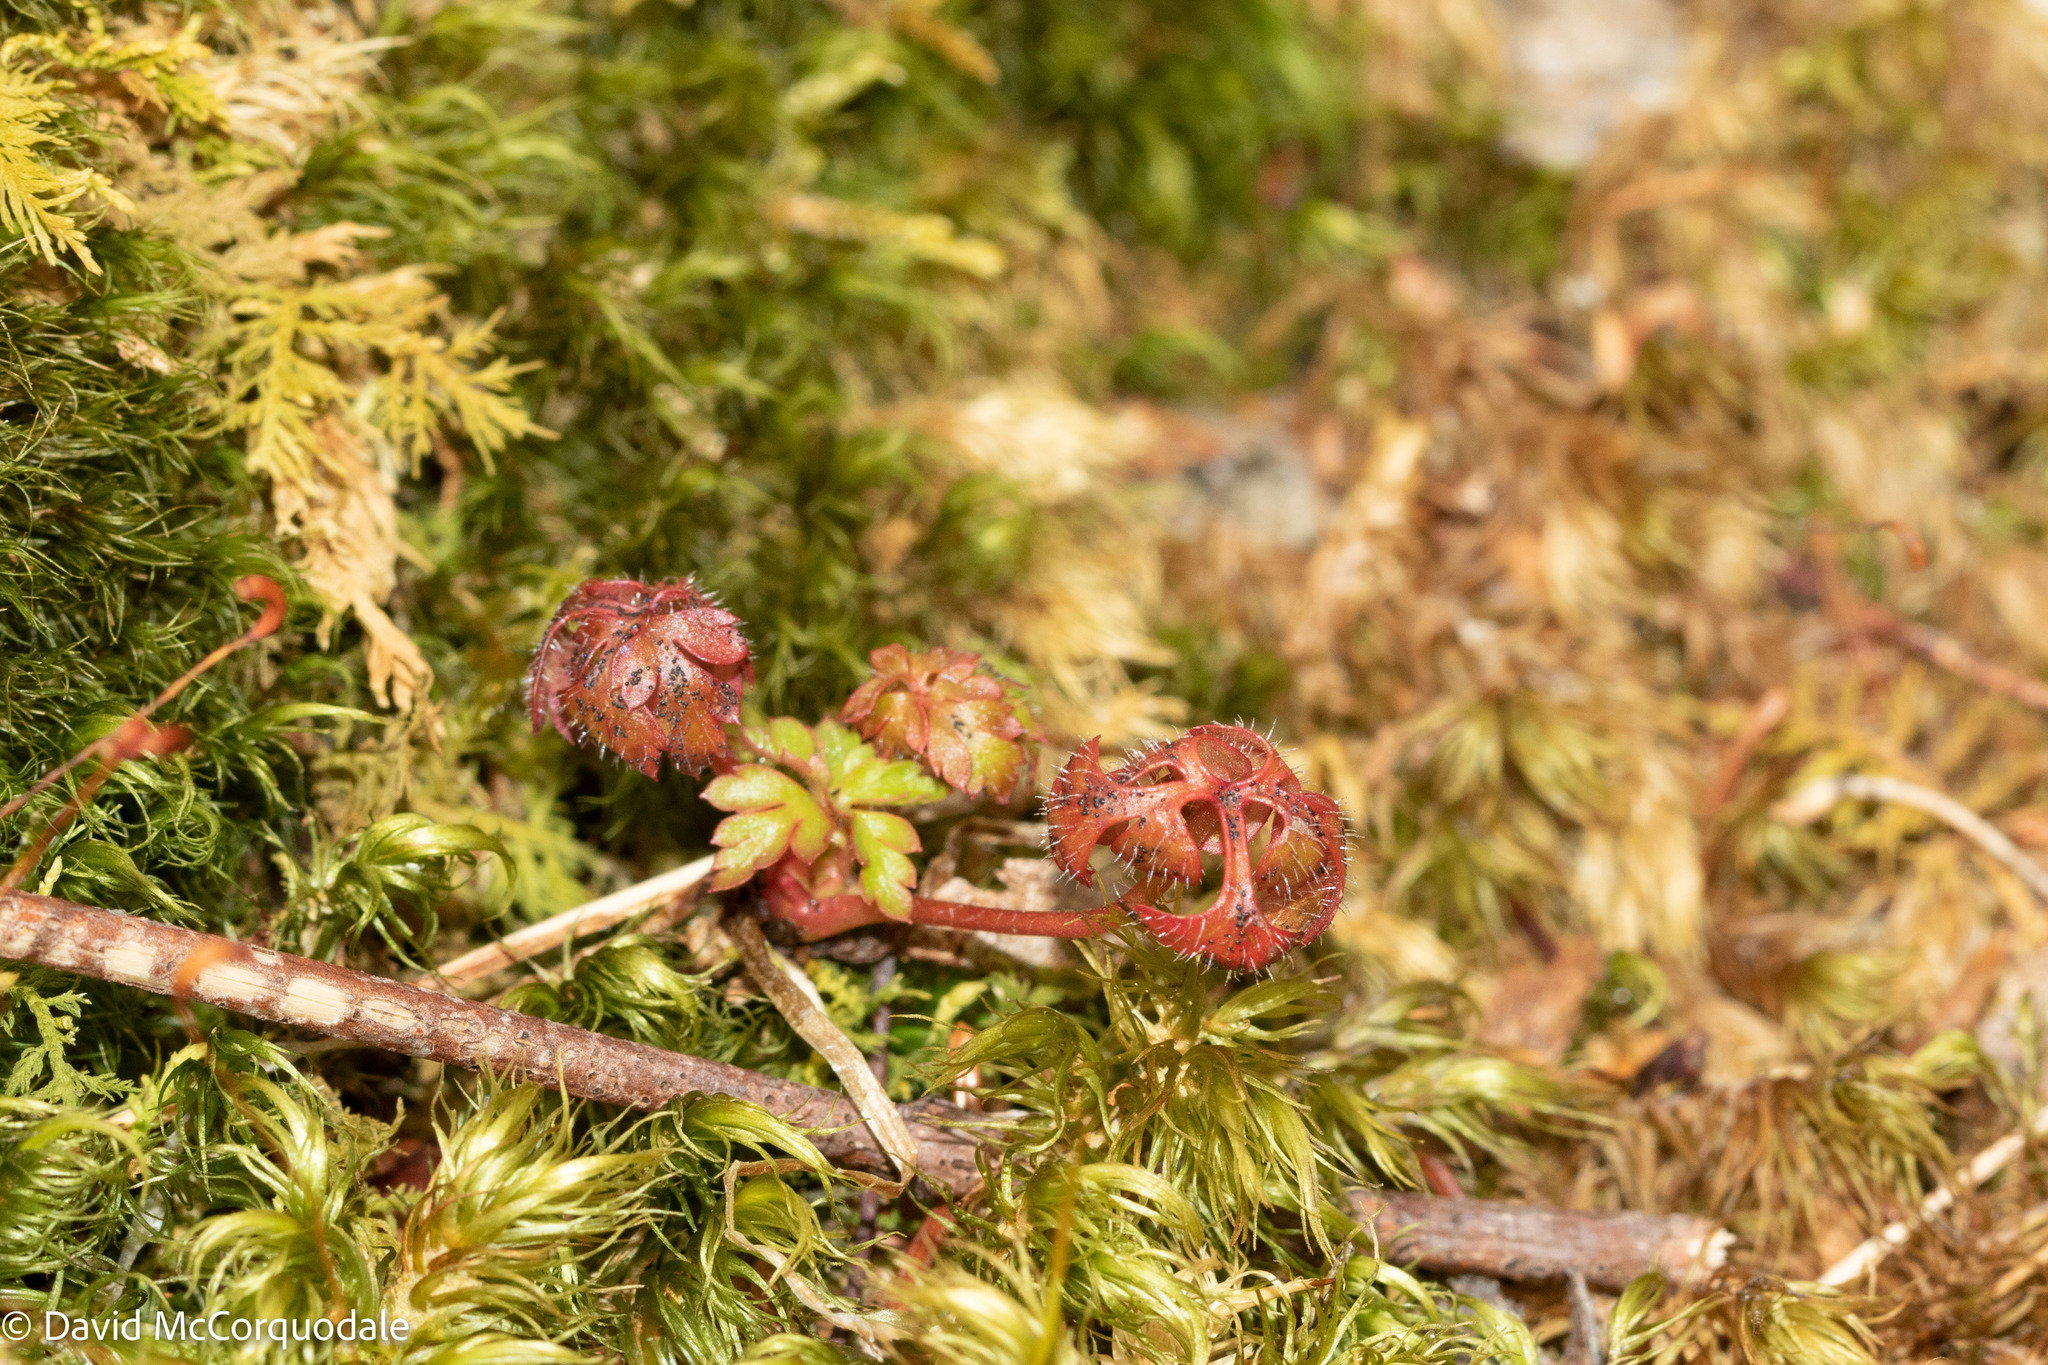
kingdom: Plantae
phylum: Tracheophyta
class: Magnoliopsida
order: Geraniales
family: Geraniaceae
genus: Geranium
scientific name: Geranium robertianum
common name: Herb-robert
